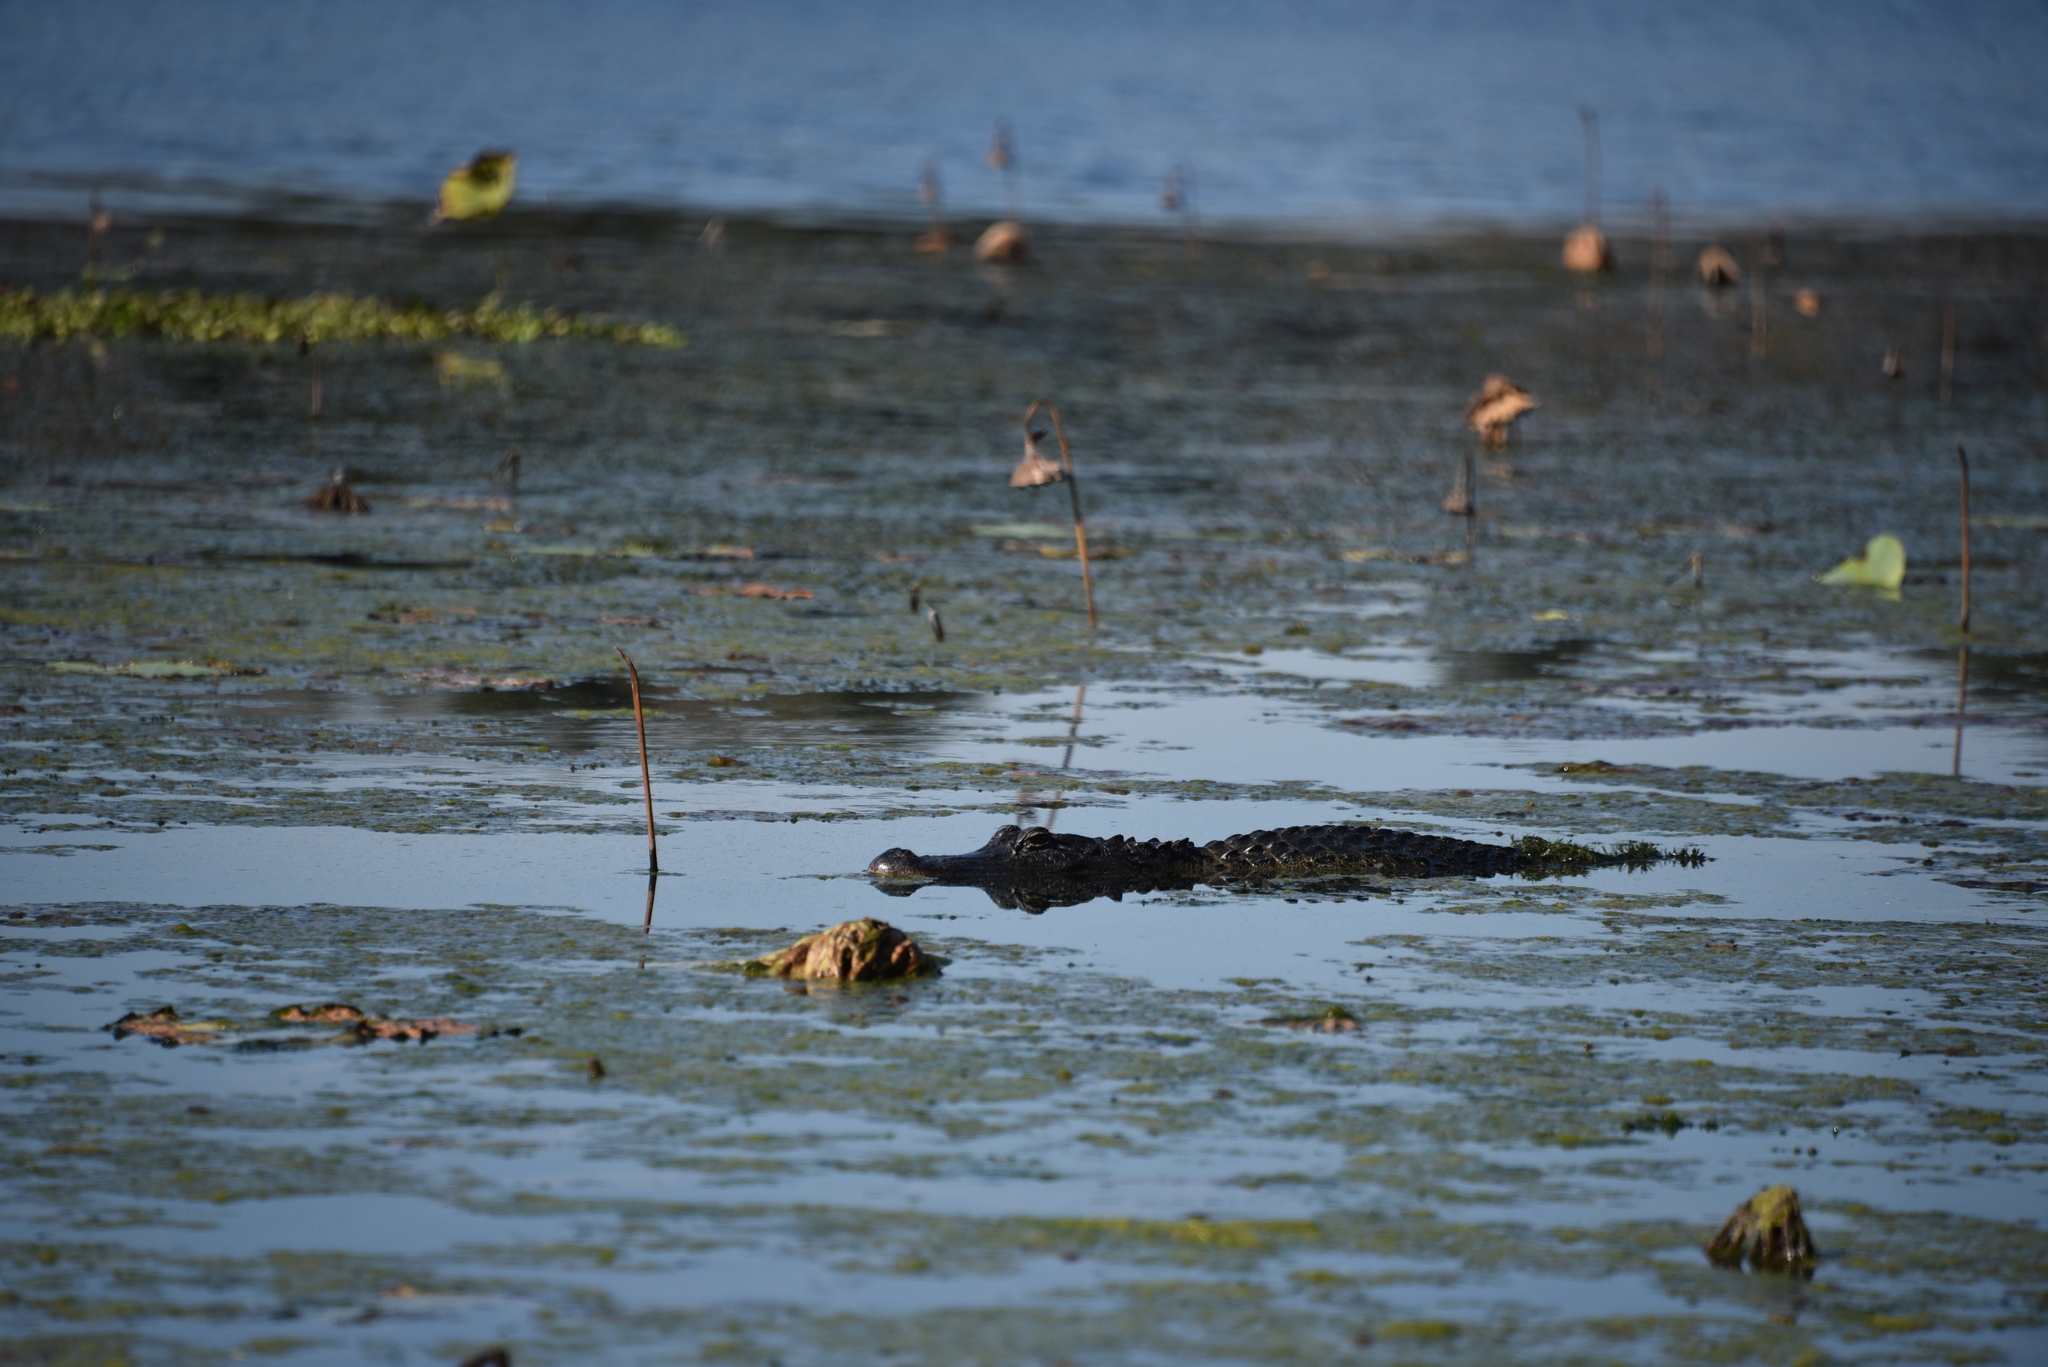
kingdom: Animalia
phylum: Chordata
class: Crocodylia
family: Alligatoridae
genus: Alligator
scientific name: Alligator mississippiensis
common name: American alligator
